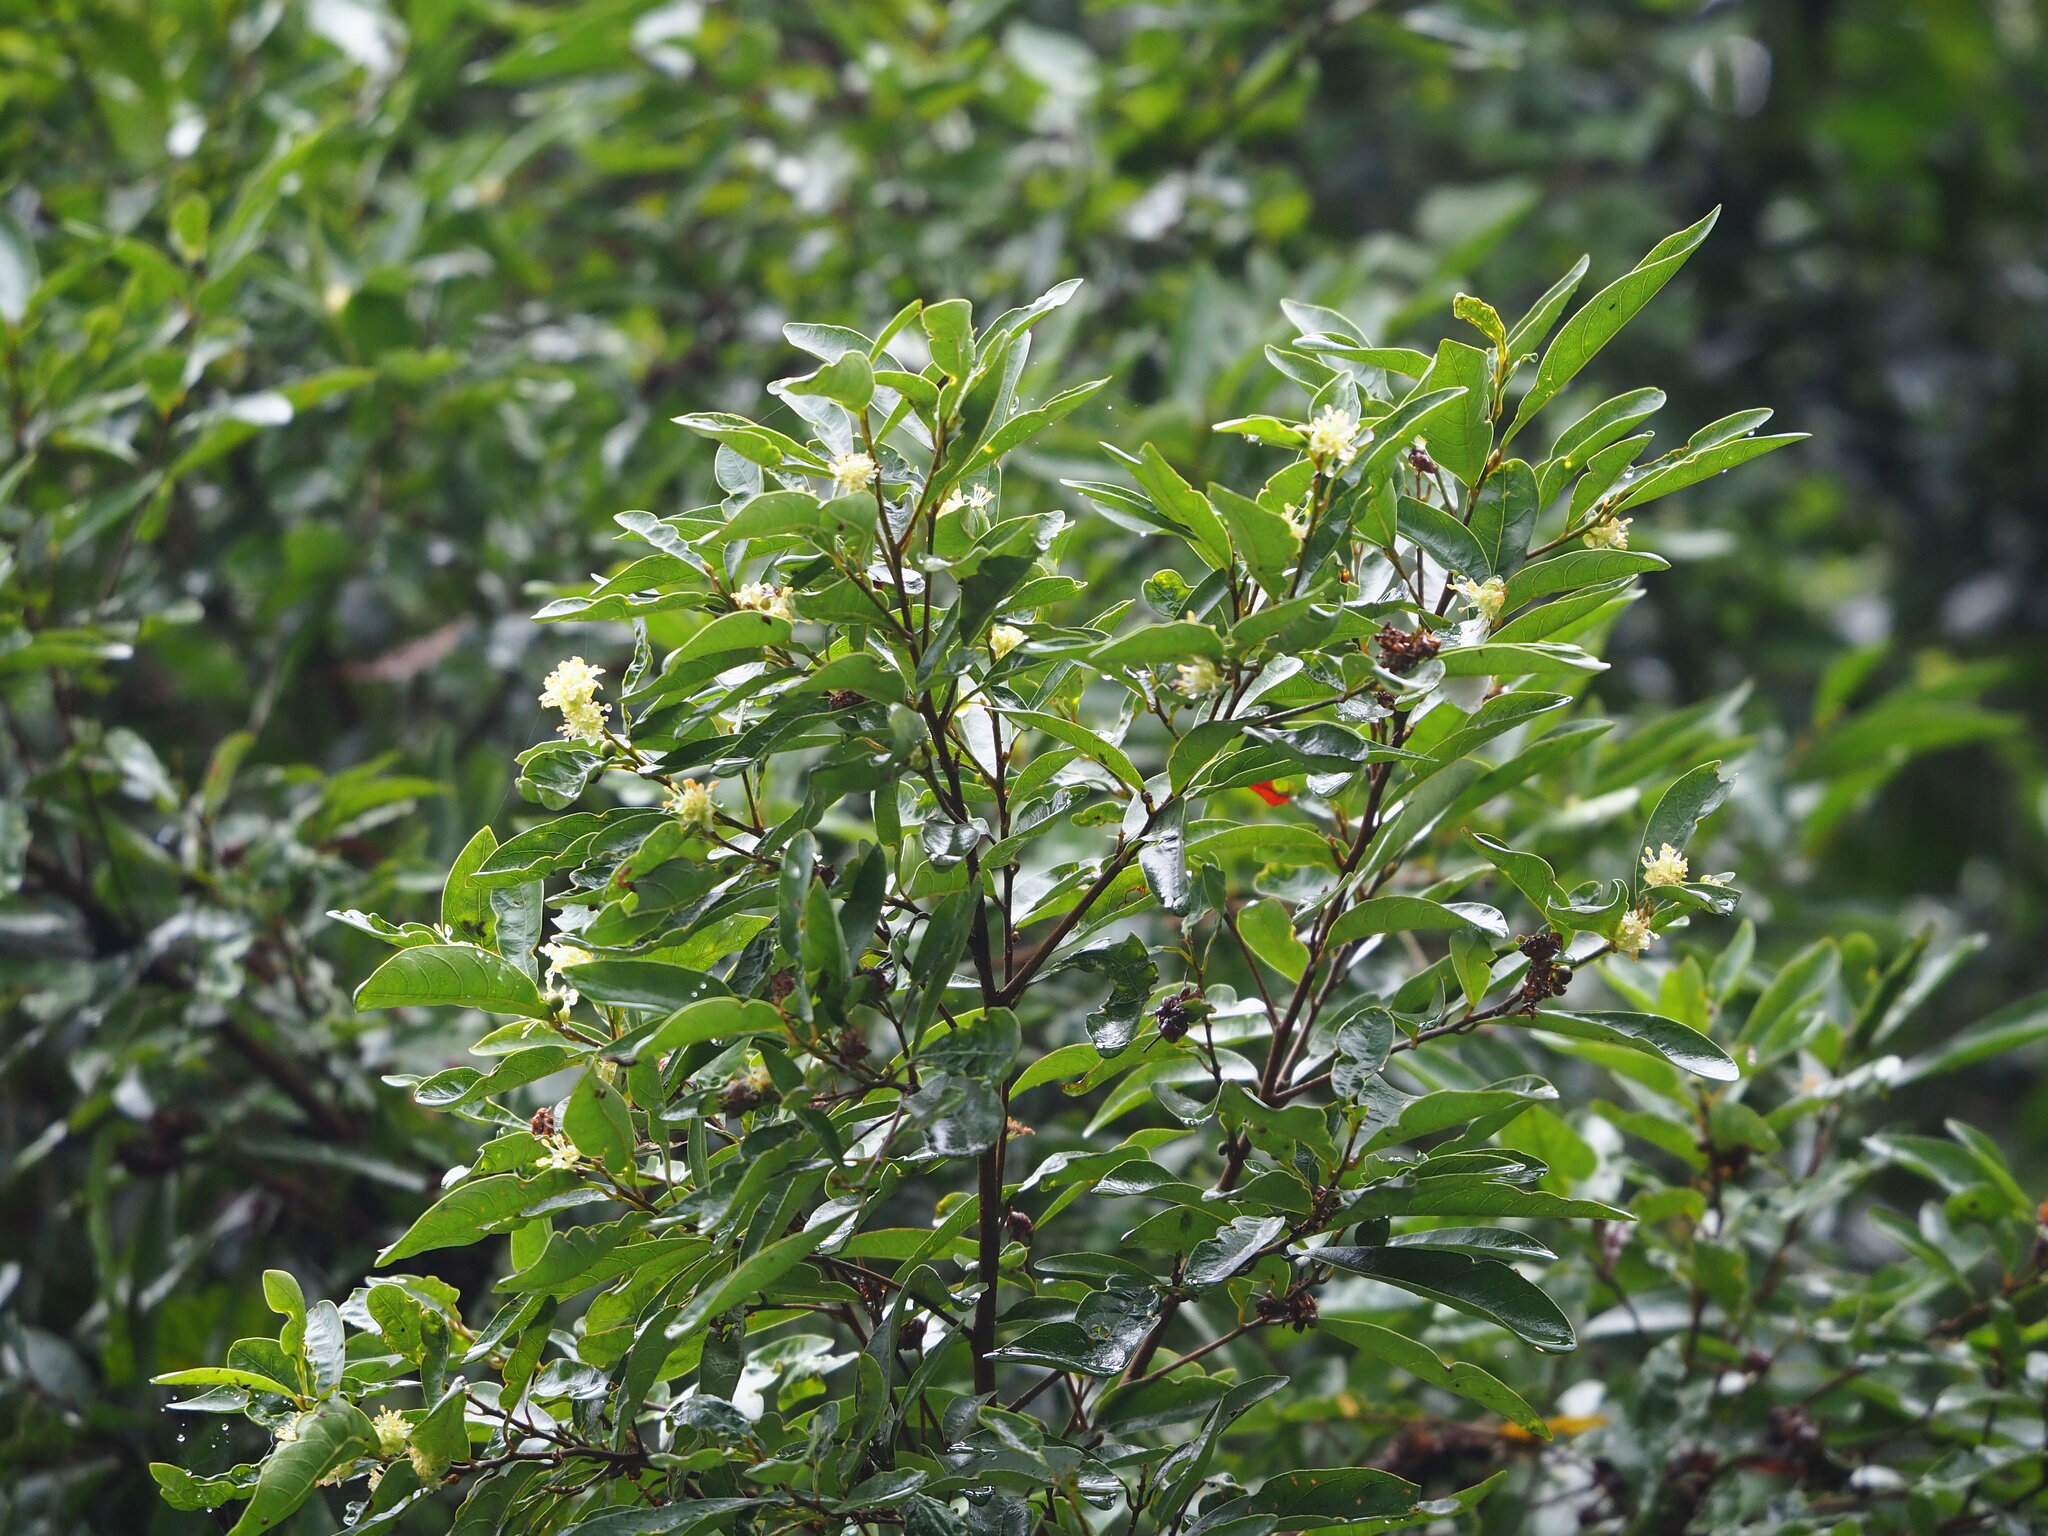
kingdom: Plantae
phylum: Tracheophyta
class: Magnoliopsida
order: Laurales
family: Lauraceae
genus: Litsea
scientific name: Litsea hypophaea
